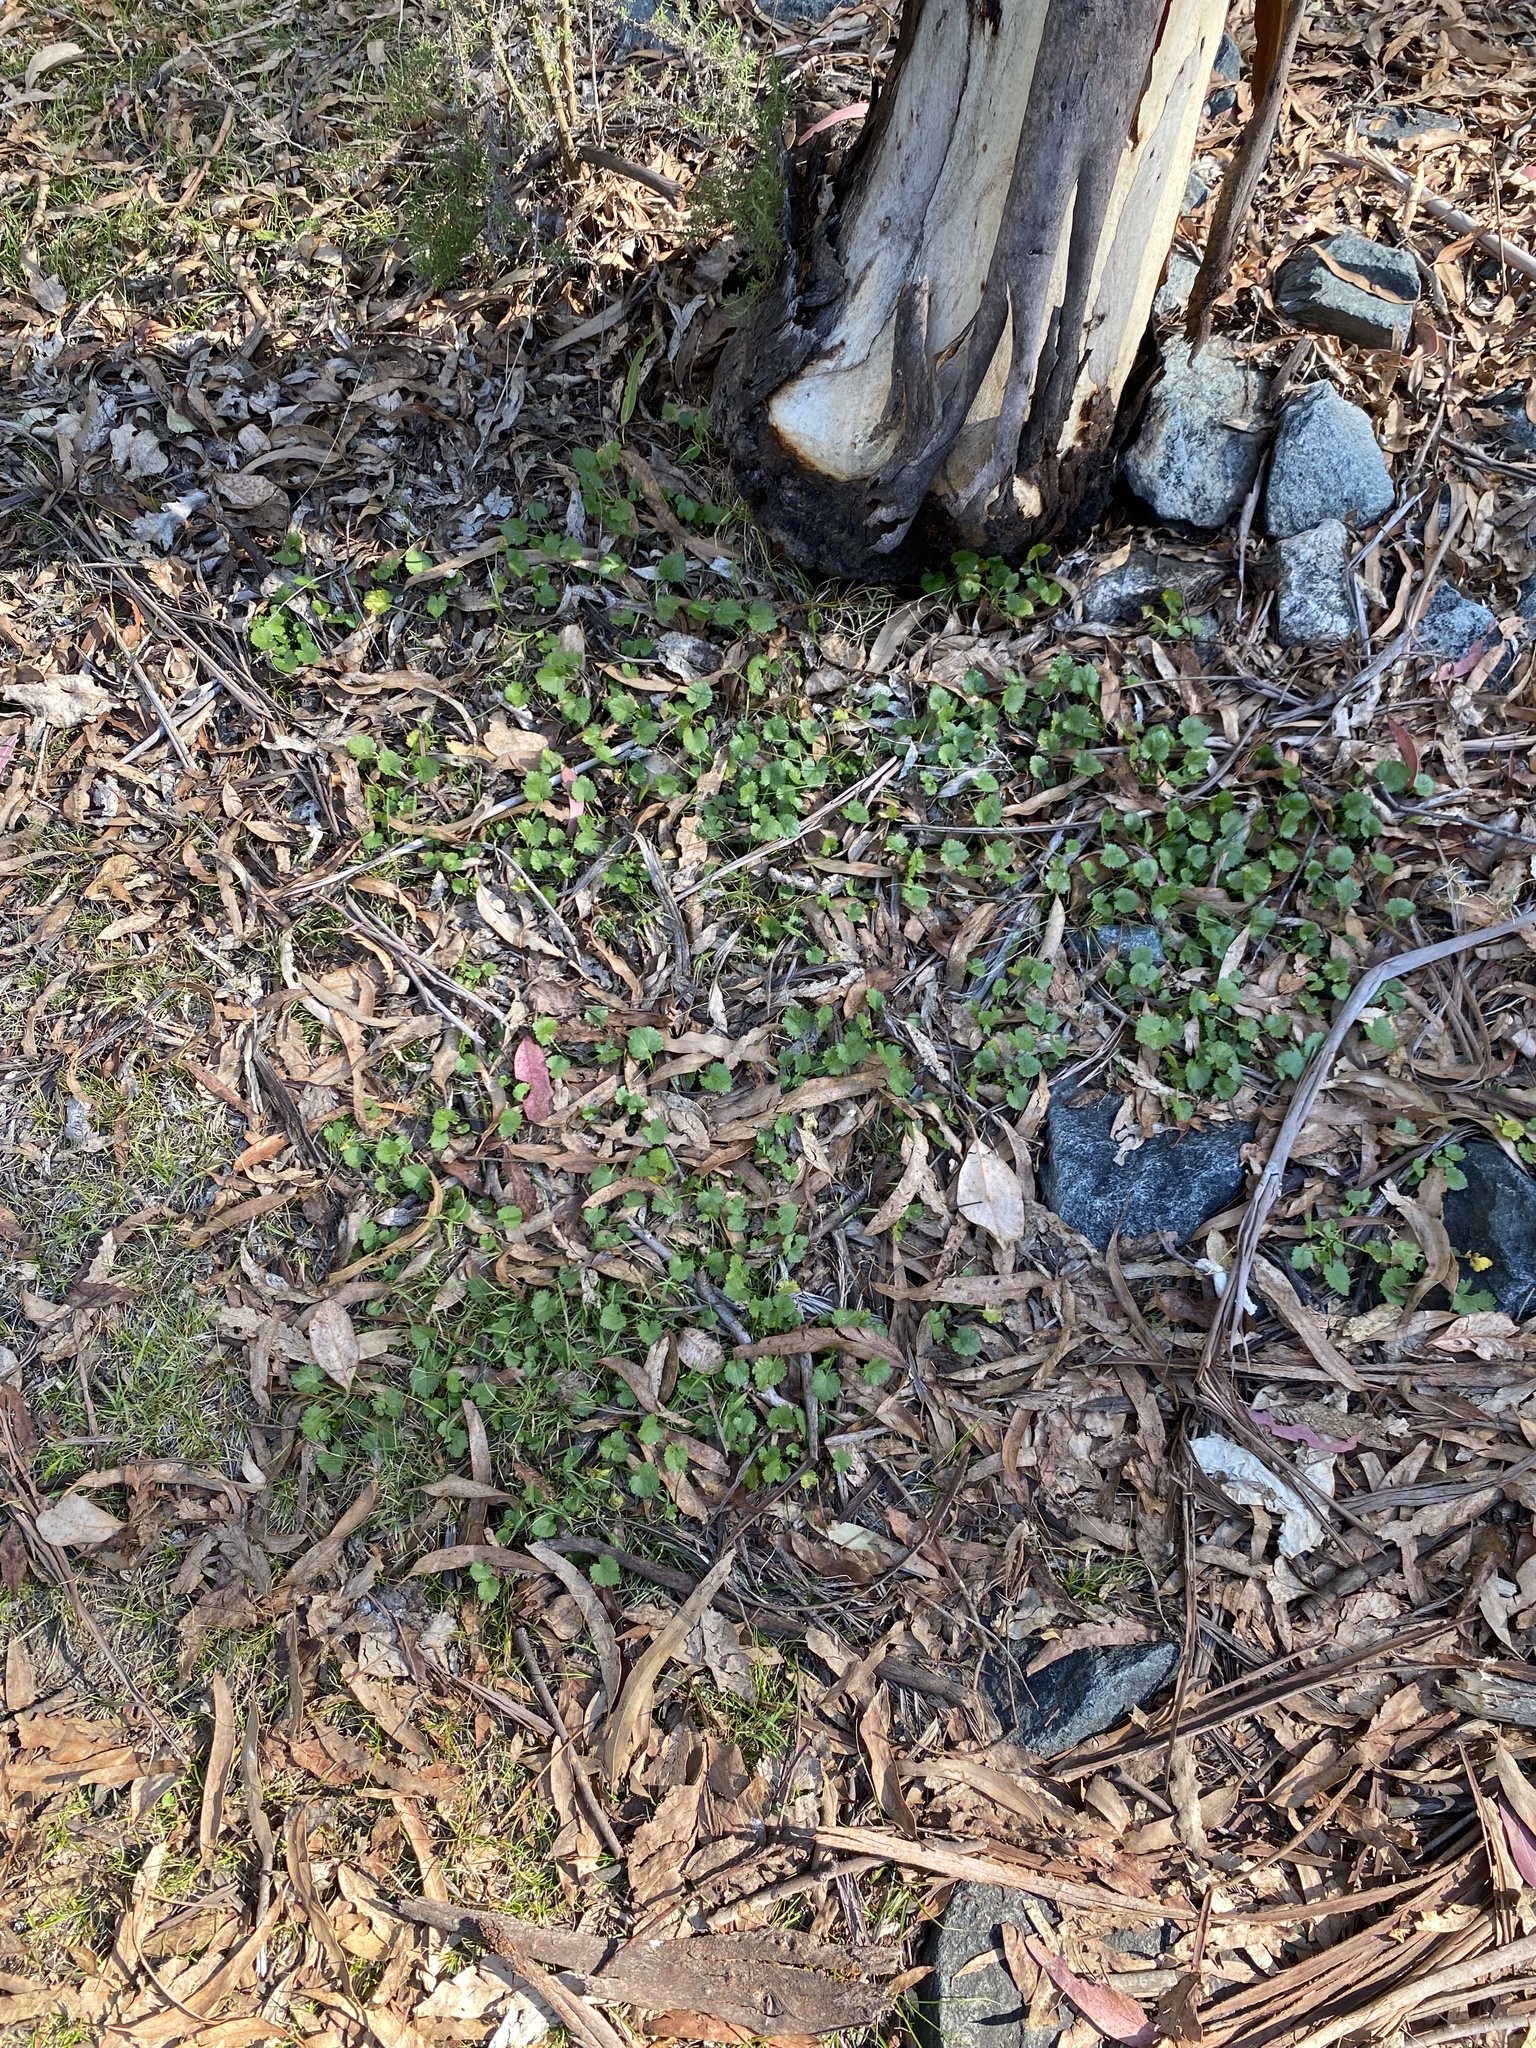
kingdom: Plantae
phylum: Tracheophyta
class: Magnoliopsida
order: Malvales
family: Malvaceae
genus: Modiola
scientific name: Modiola caroliniana
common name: Carolina bristlemallow
